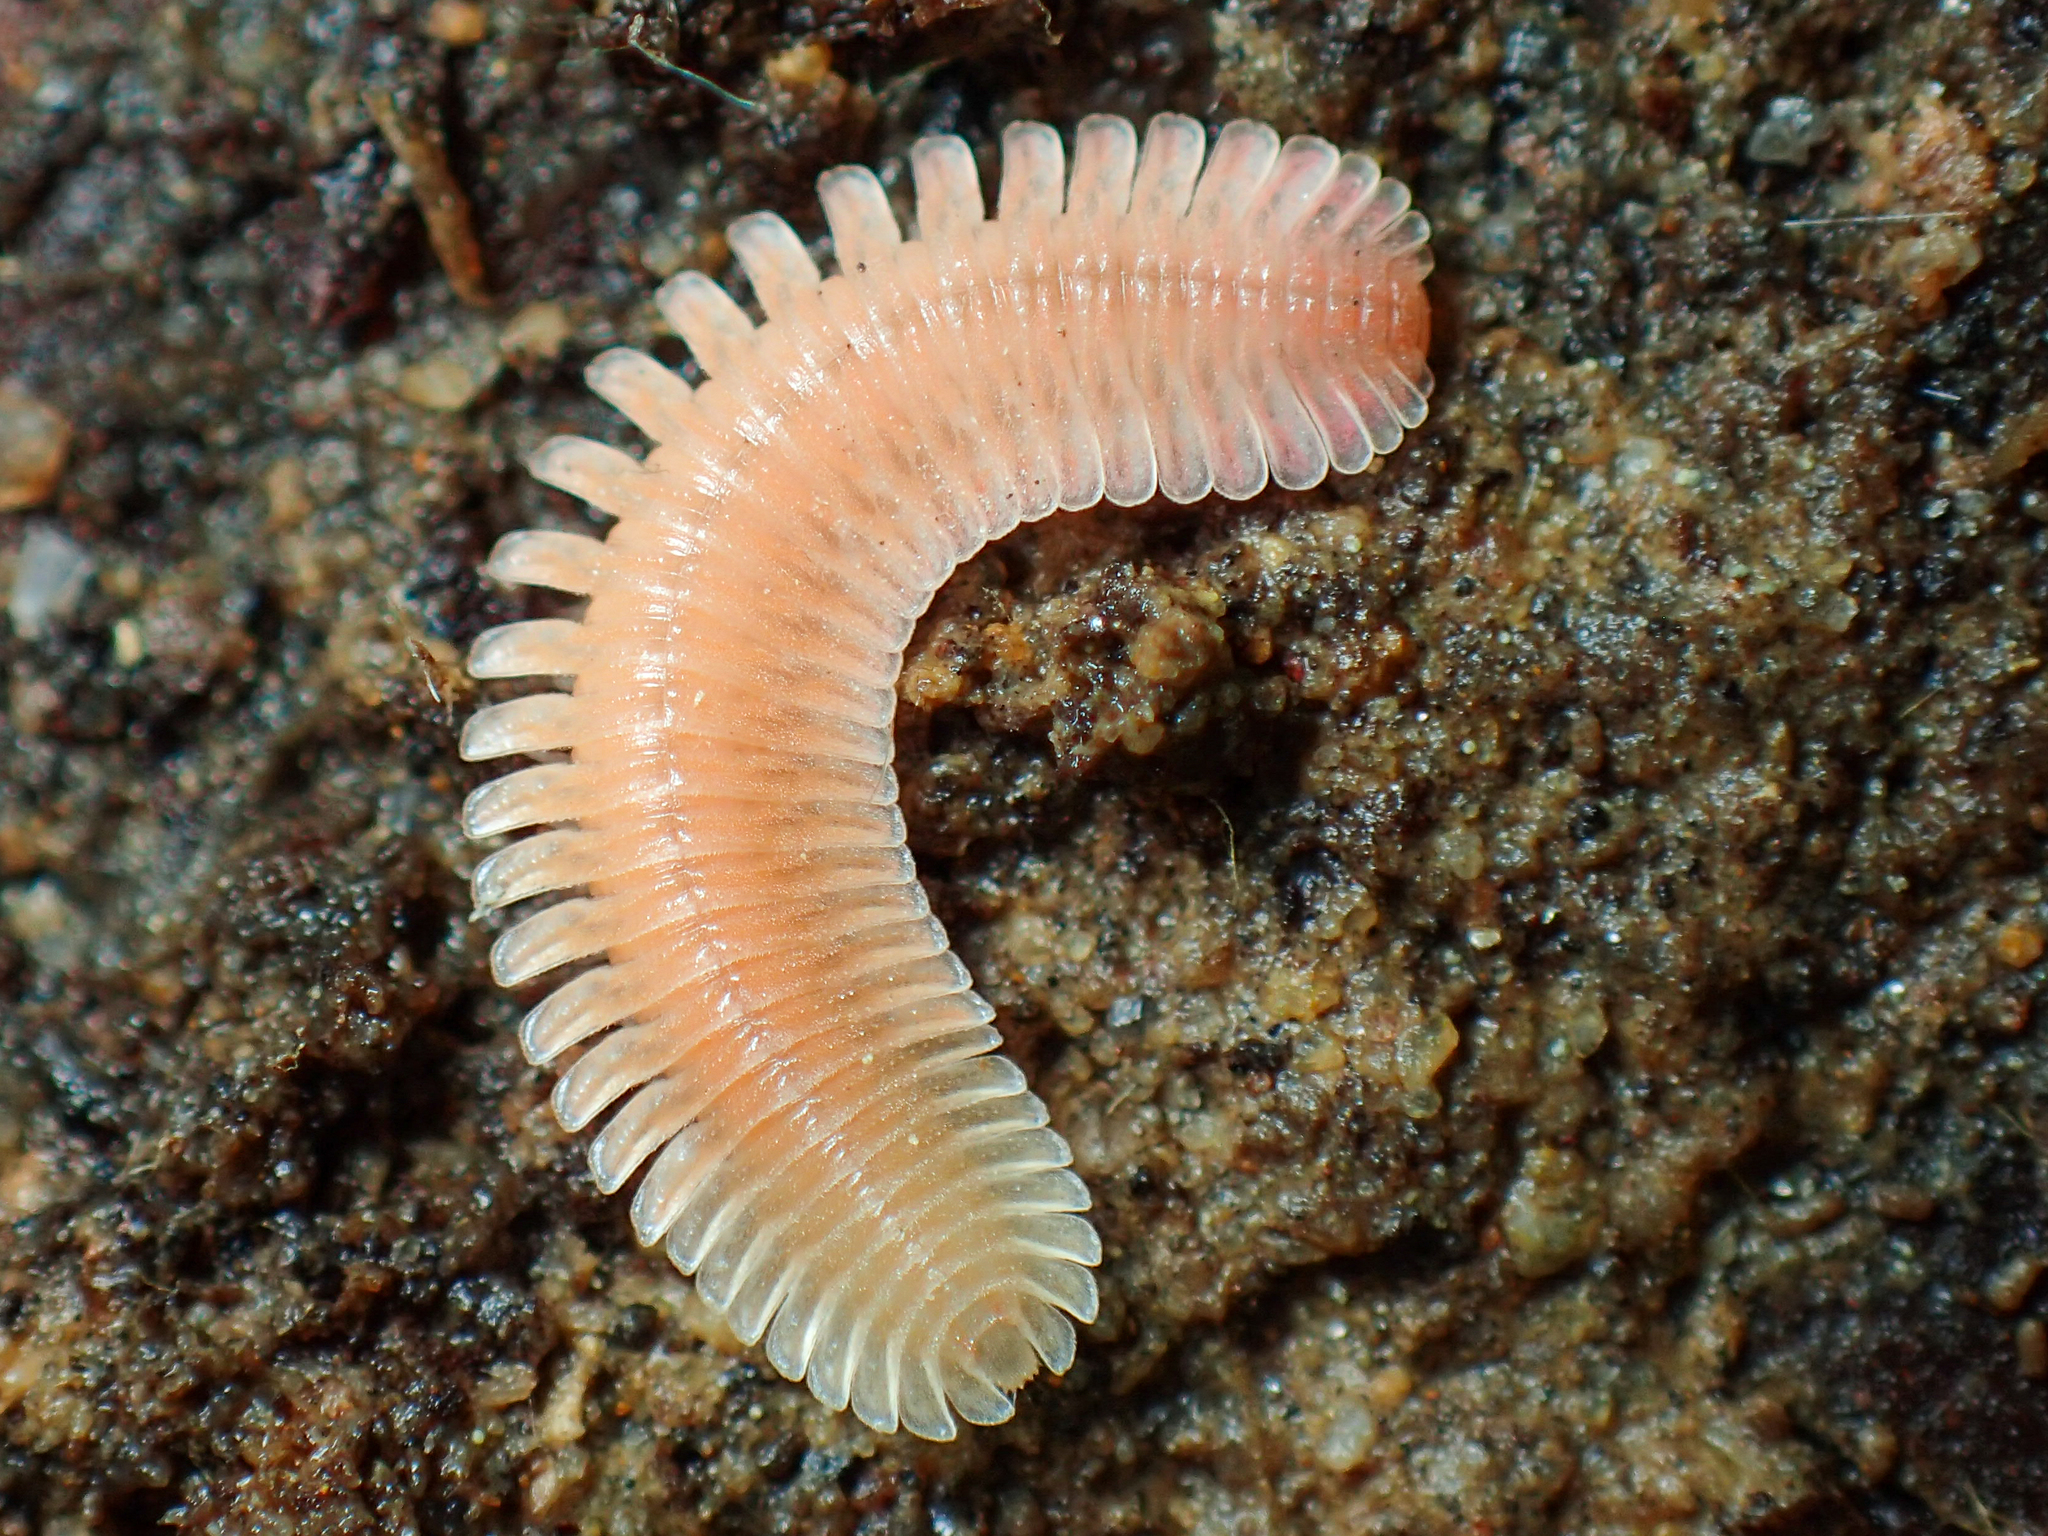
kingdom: Animalia
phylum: Arthropoda
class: Diplopoda
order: Platydesmida
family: Andrognathidae
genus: Brachycybe
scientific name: Brachycybe lecontii
